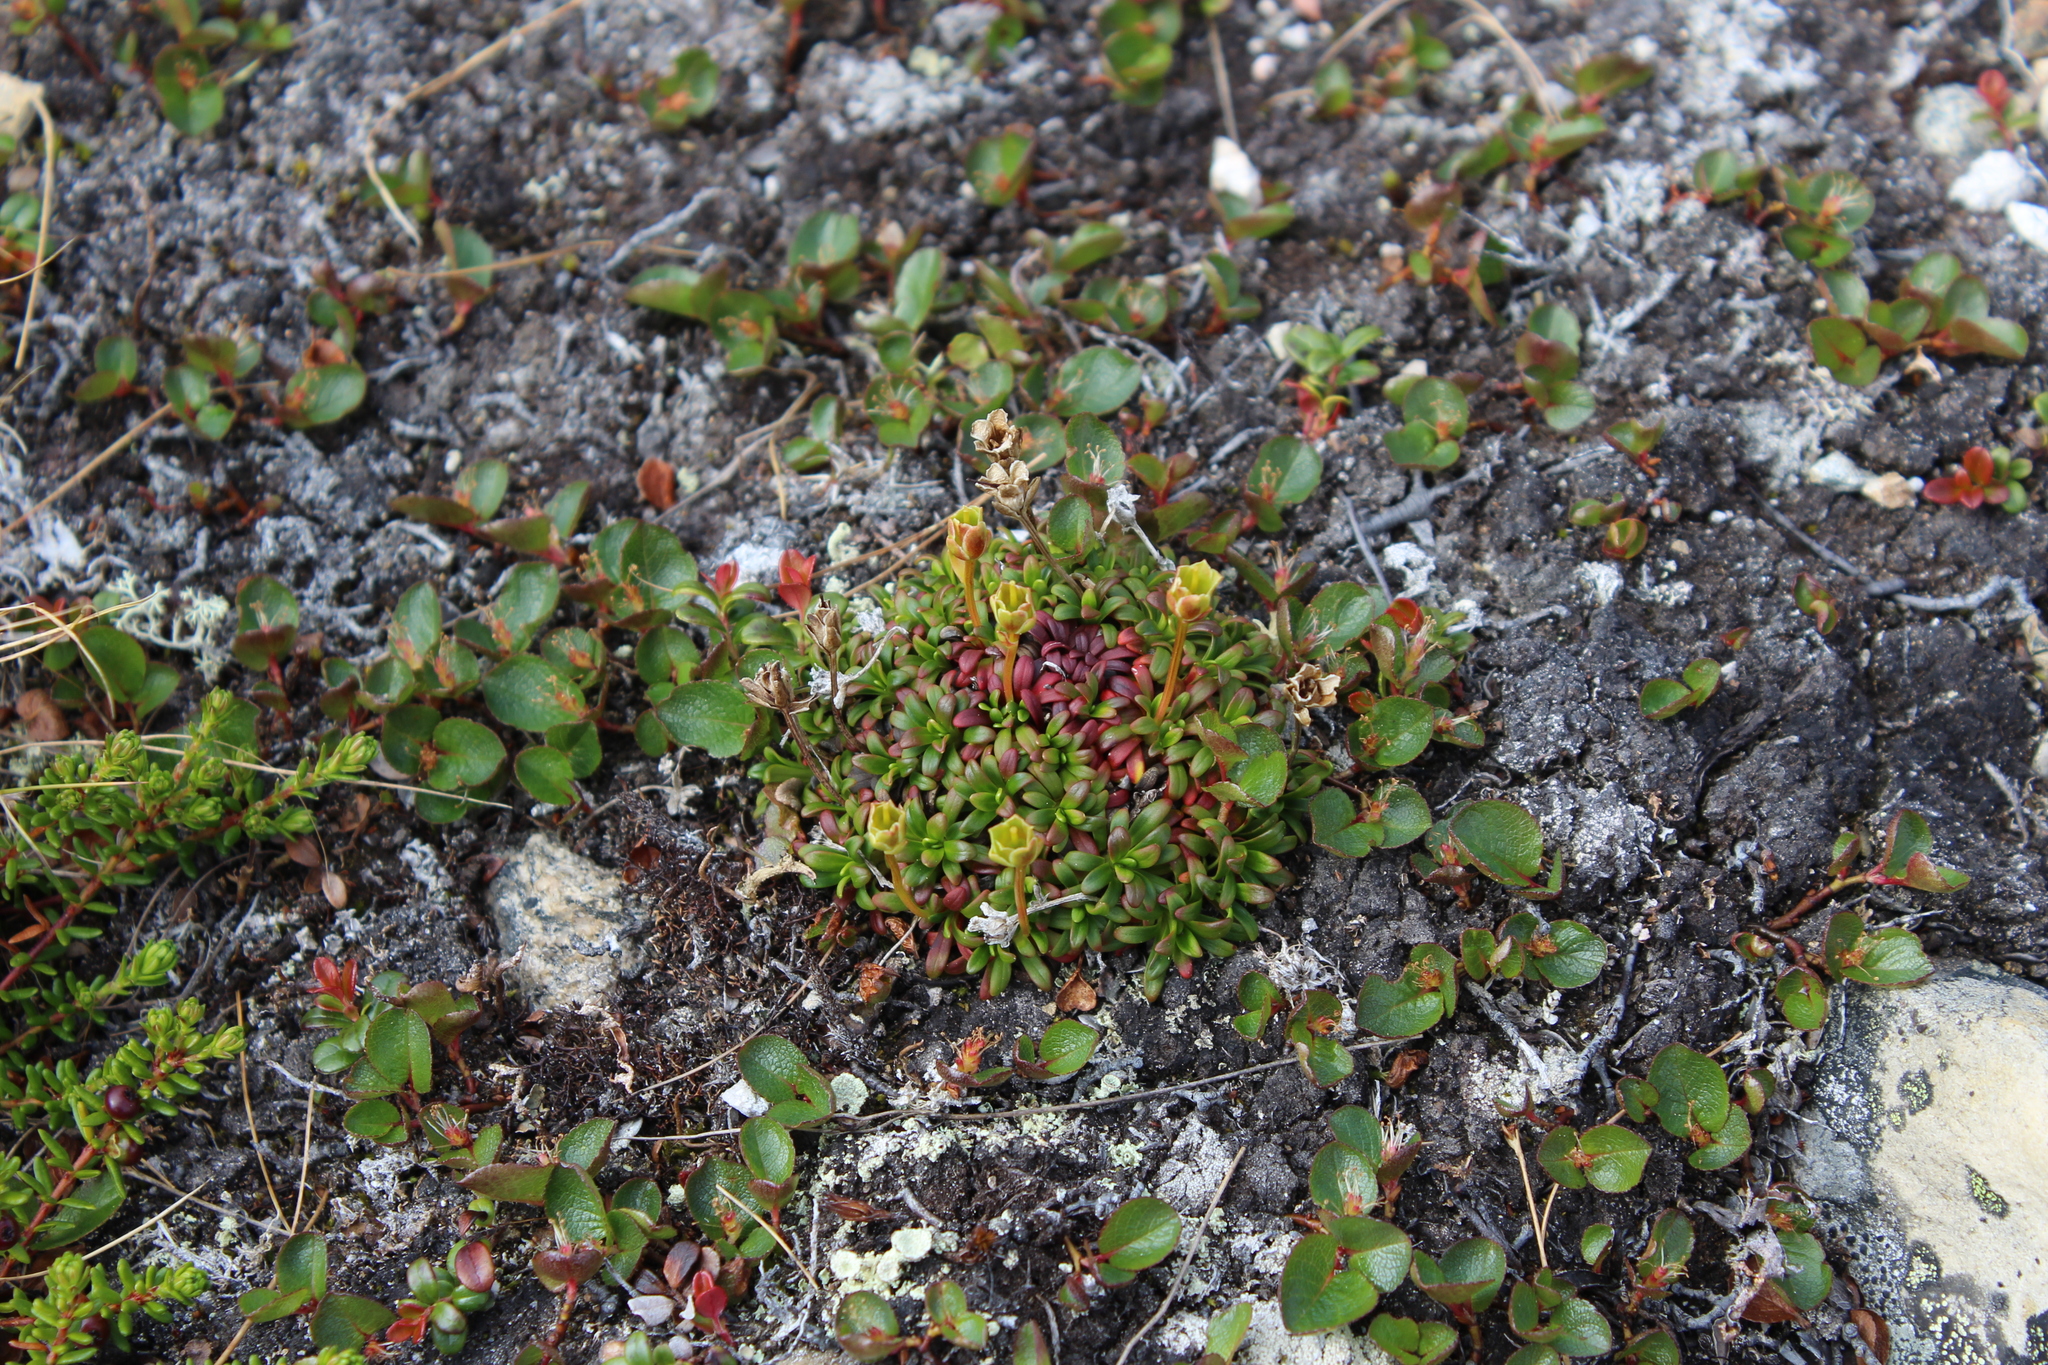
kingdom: Plantae
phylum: Tracheophyta
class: Magnoliopsida
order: Ericales
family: Diapensiaceae
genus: Diapensia
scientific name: Diapensia lapponica
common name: Diapensia
